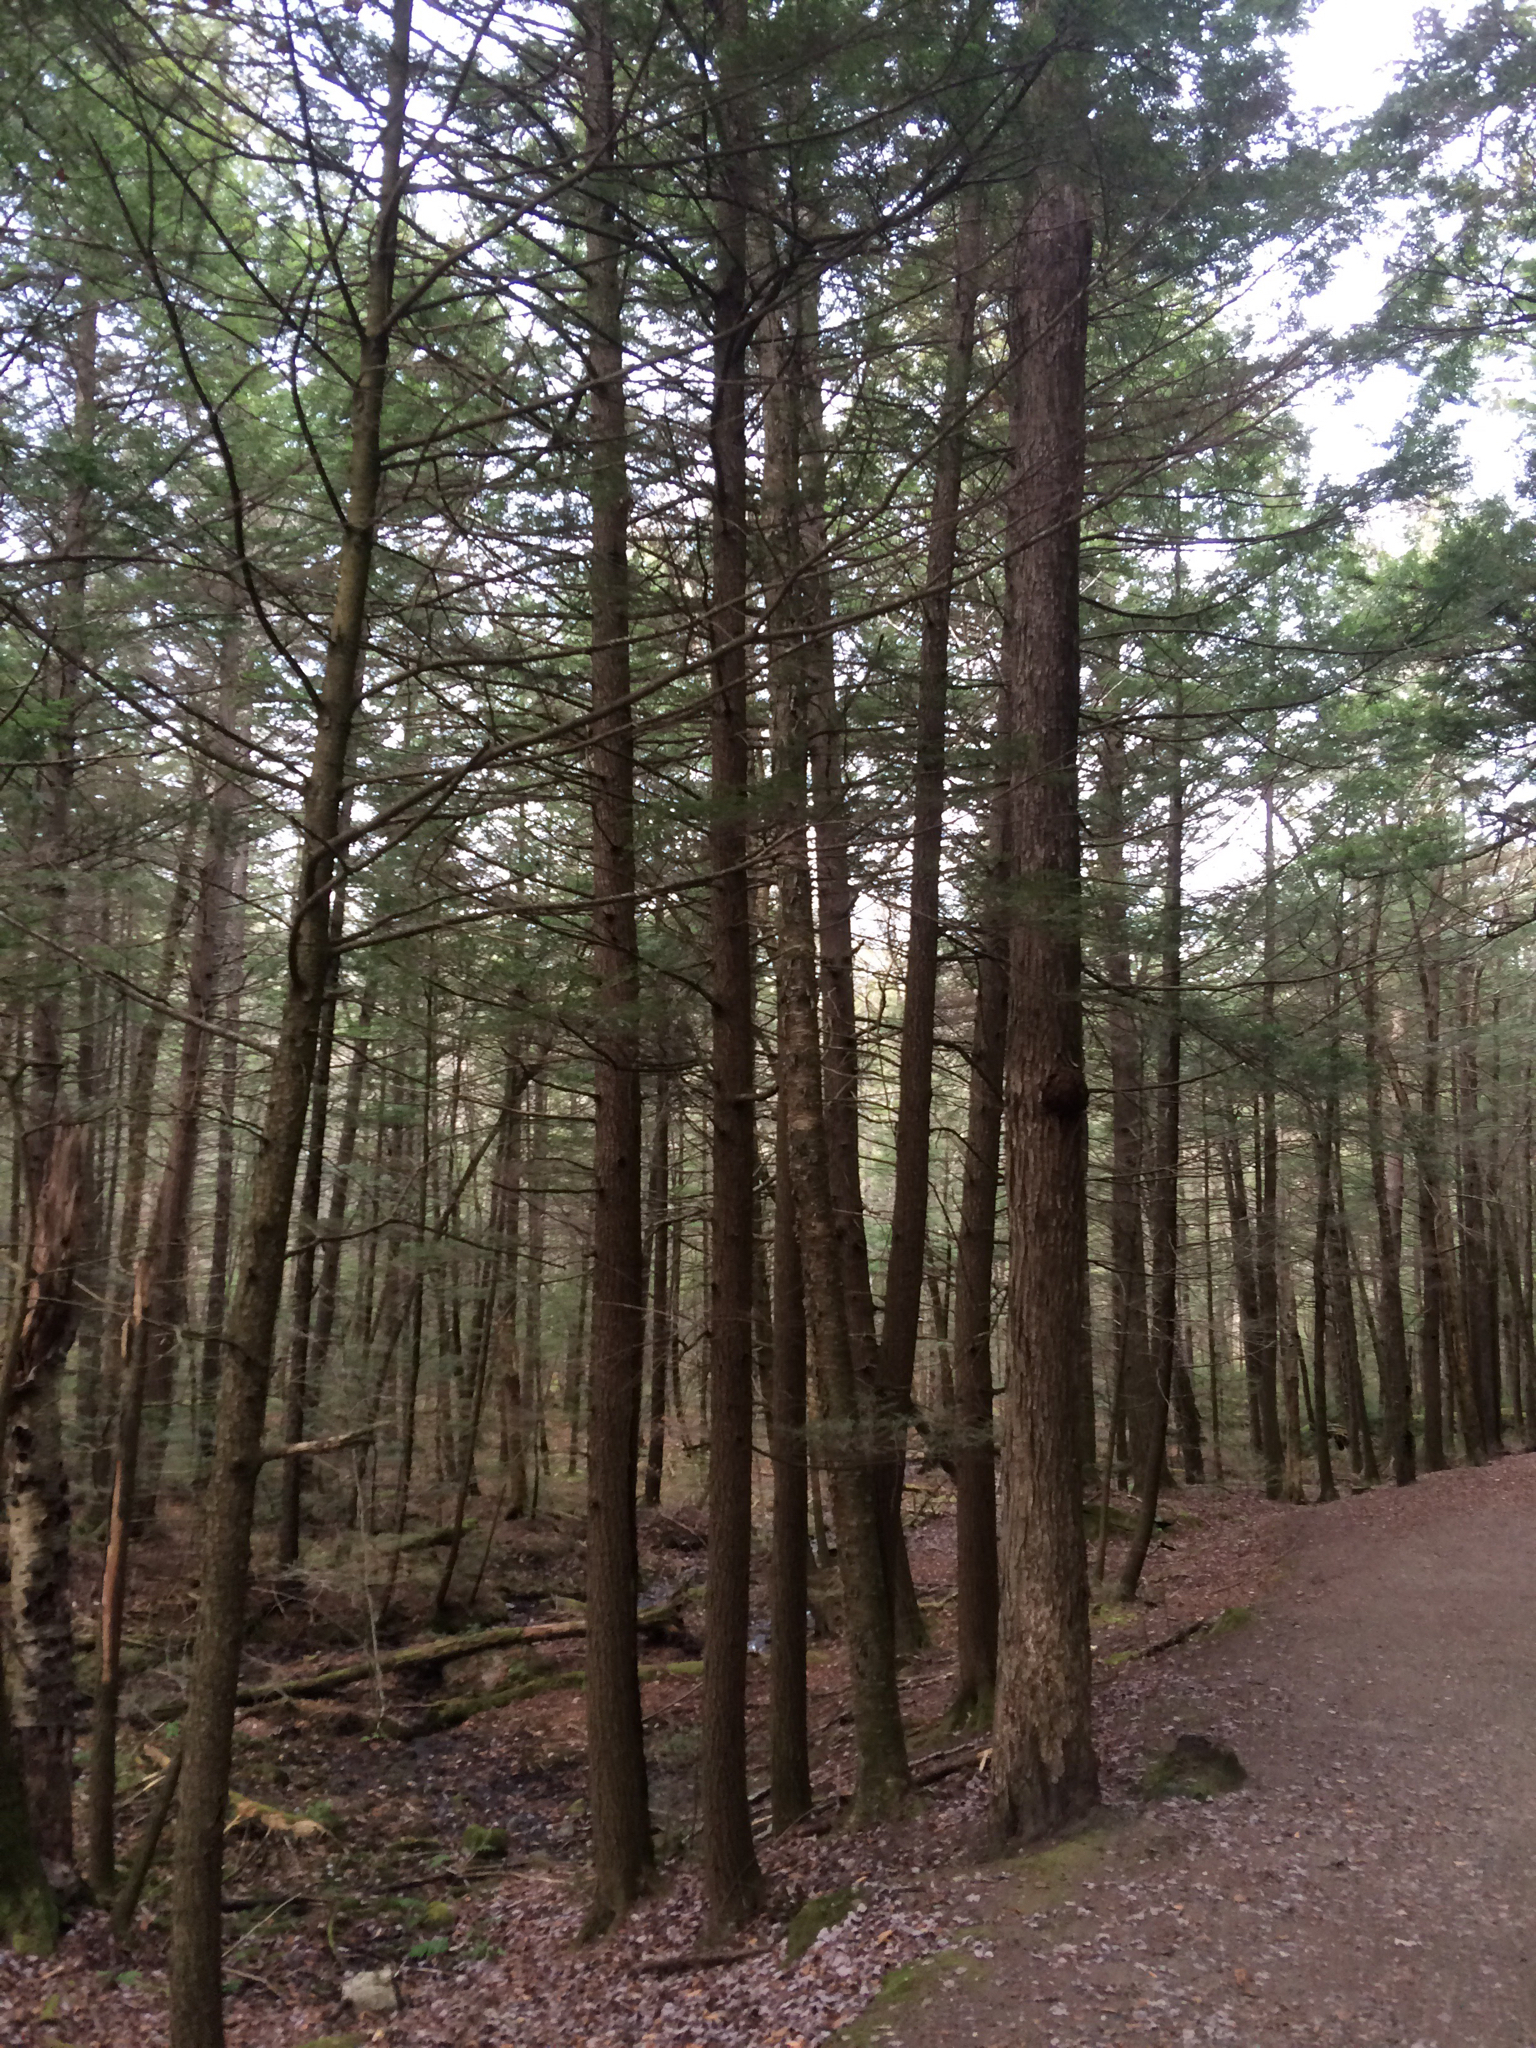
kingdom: Plantae
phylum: Tracheophyta
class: Pinopsida
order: Pinales
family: Pinaceae
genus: Tsuga
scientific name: Tsuga canadensis
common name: Eastern hemlock
